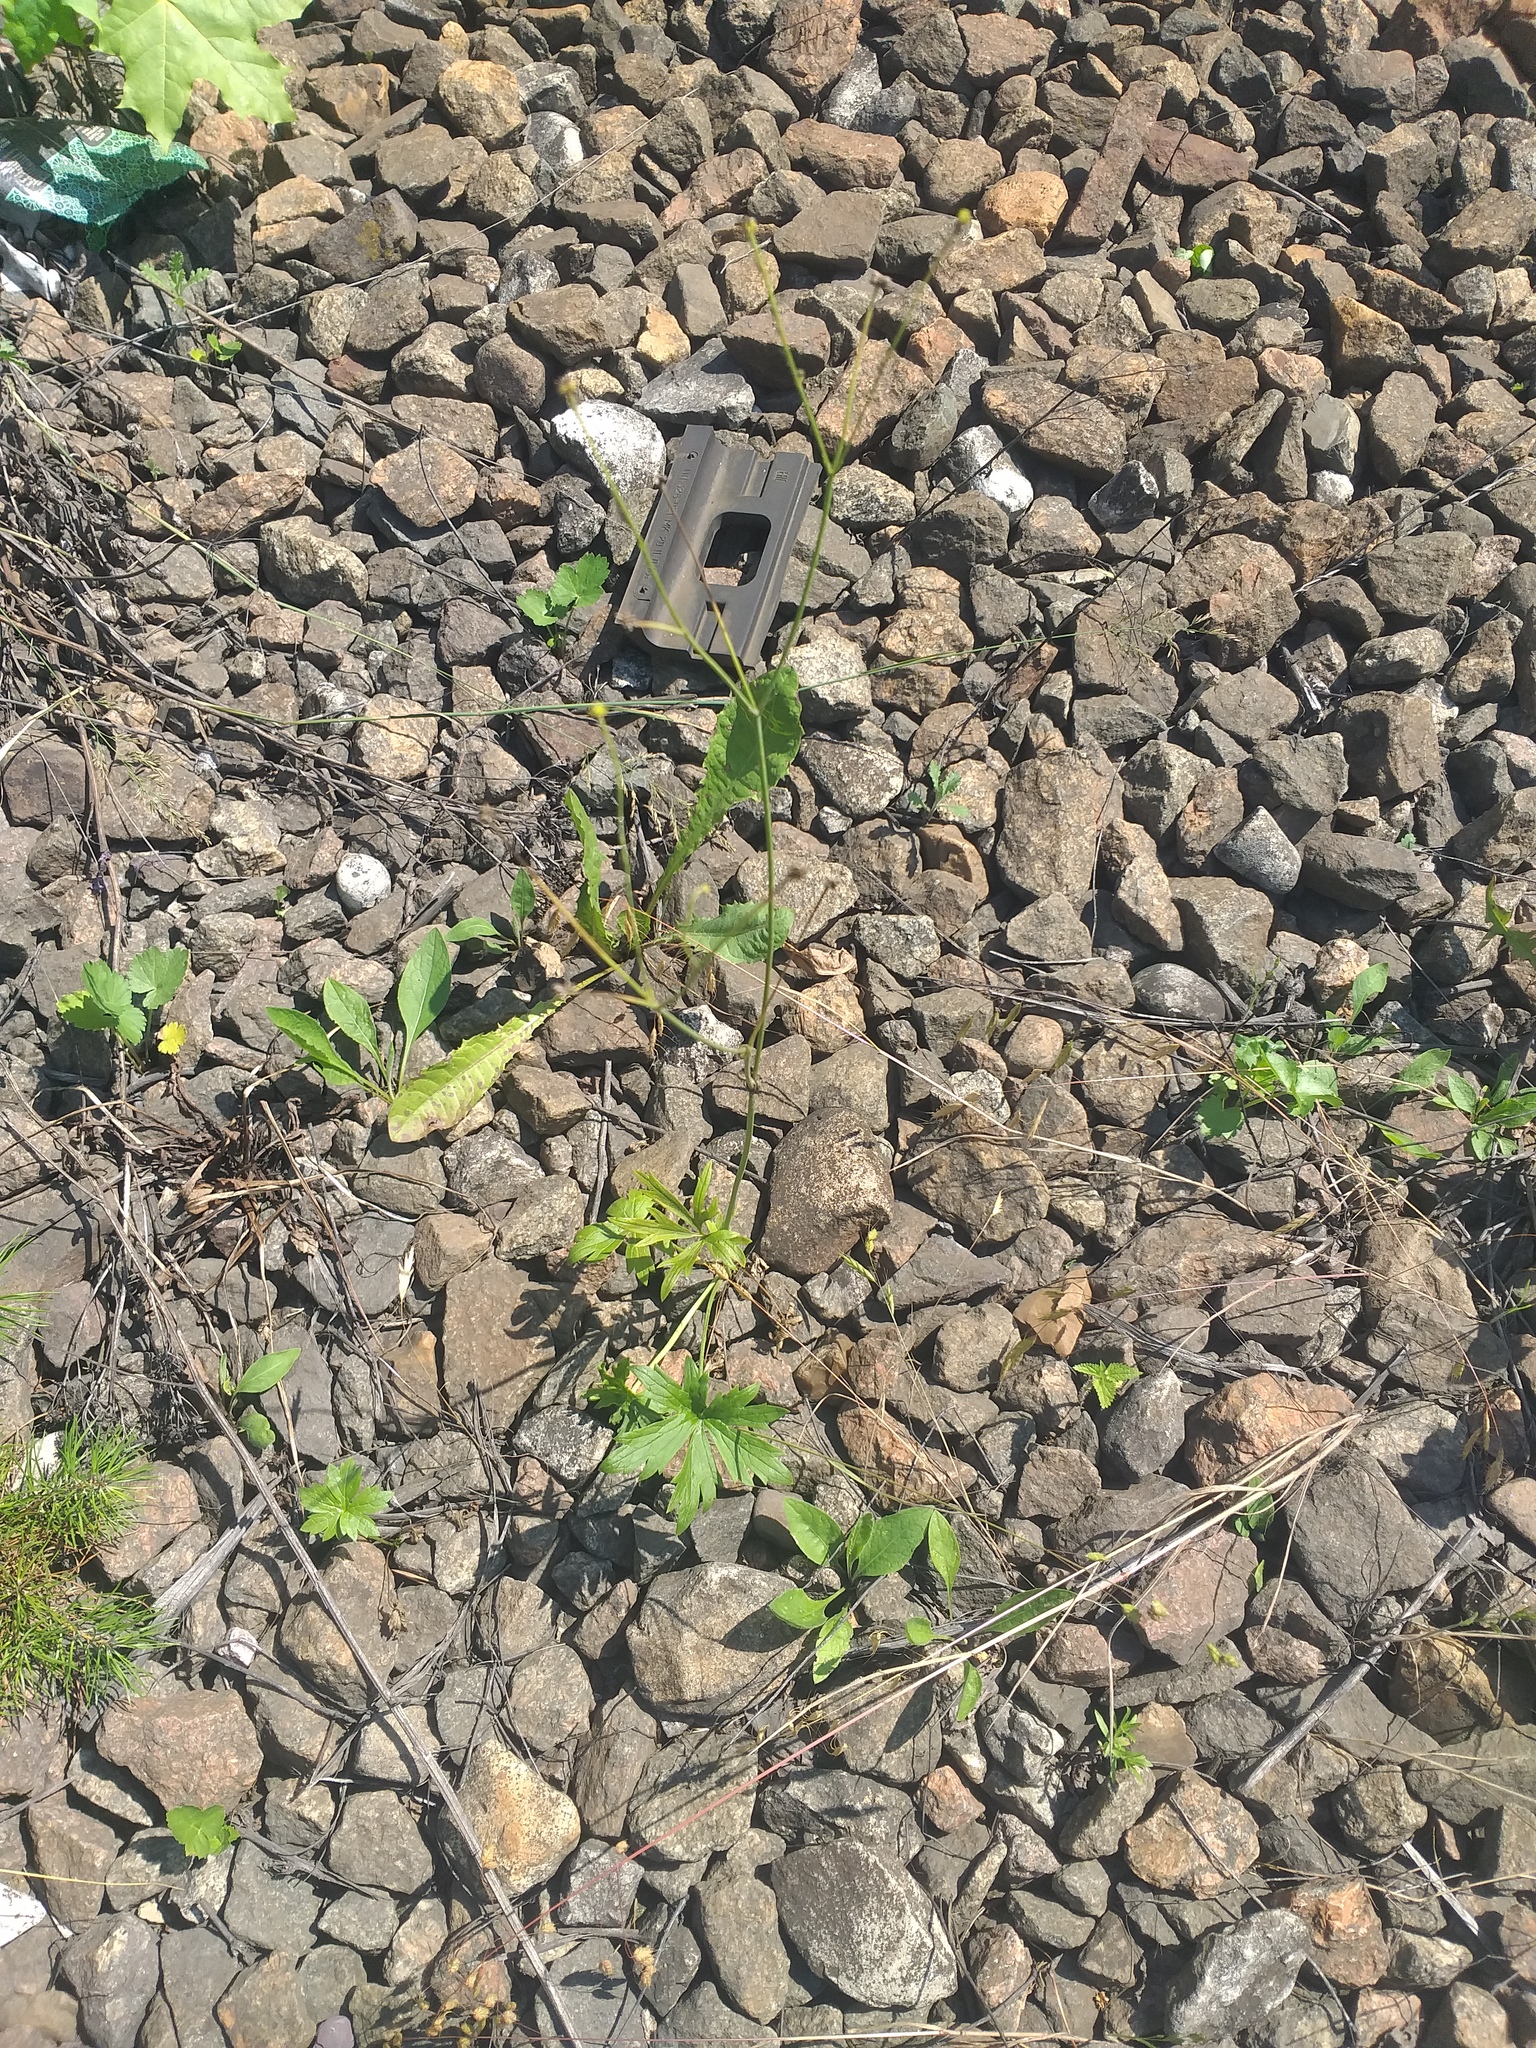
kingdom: Plantae
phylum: Tracheophyta
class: Magnoliopsida
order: Ranunculales
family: Ranunculaceae
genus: Ranunculus
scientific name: Ranunculus acris
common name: Meadow buttercup
